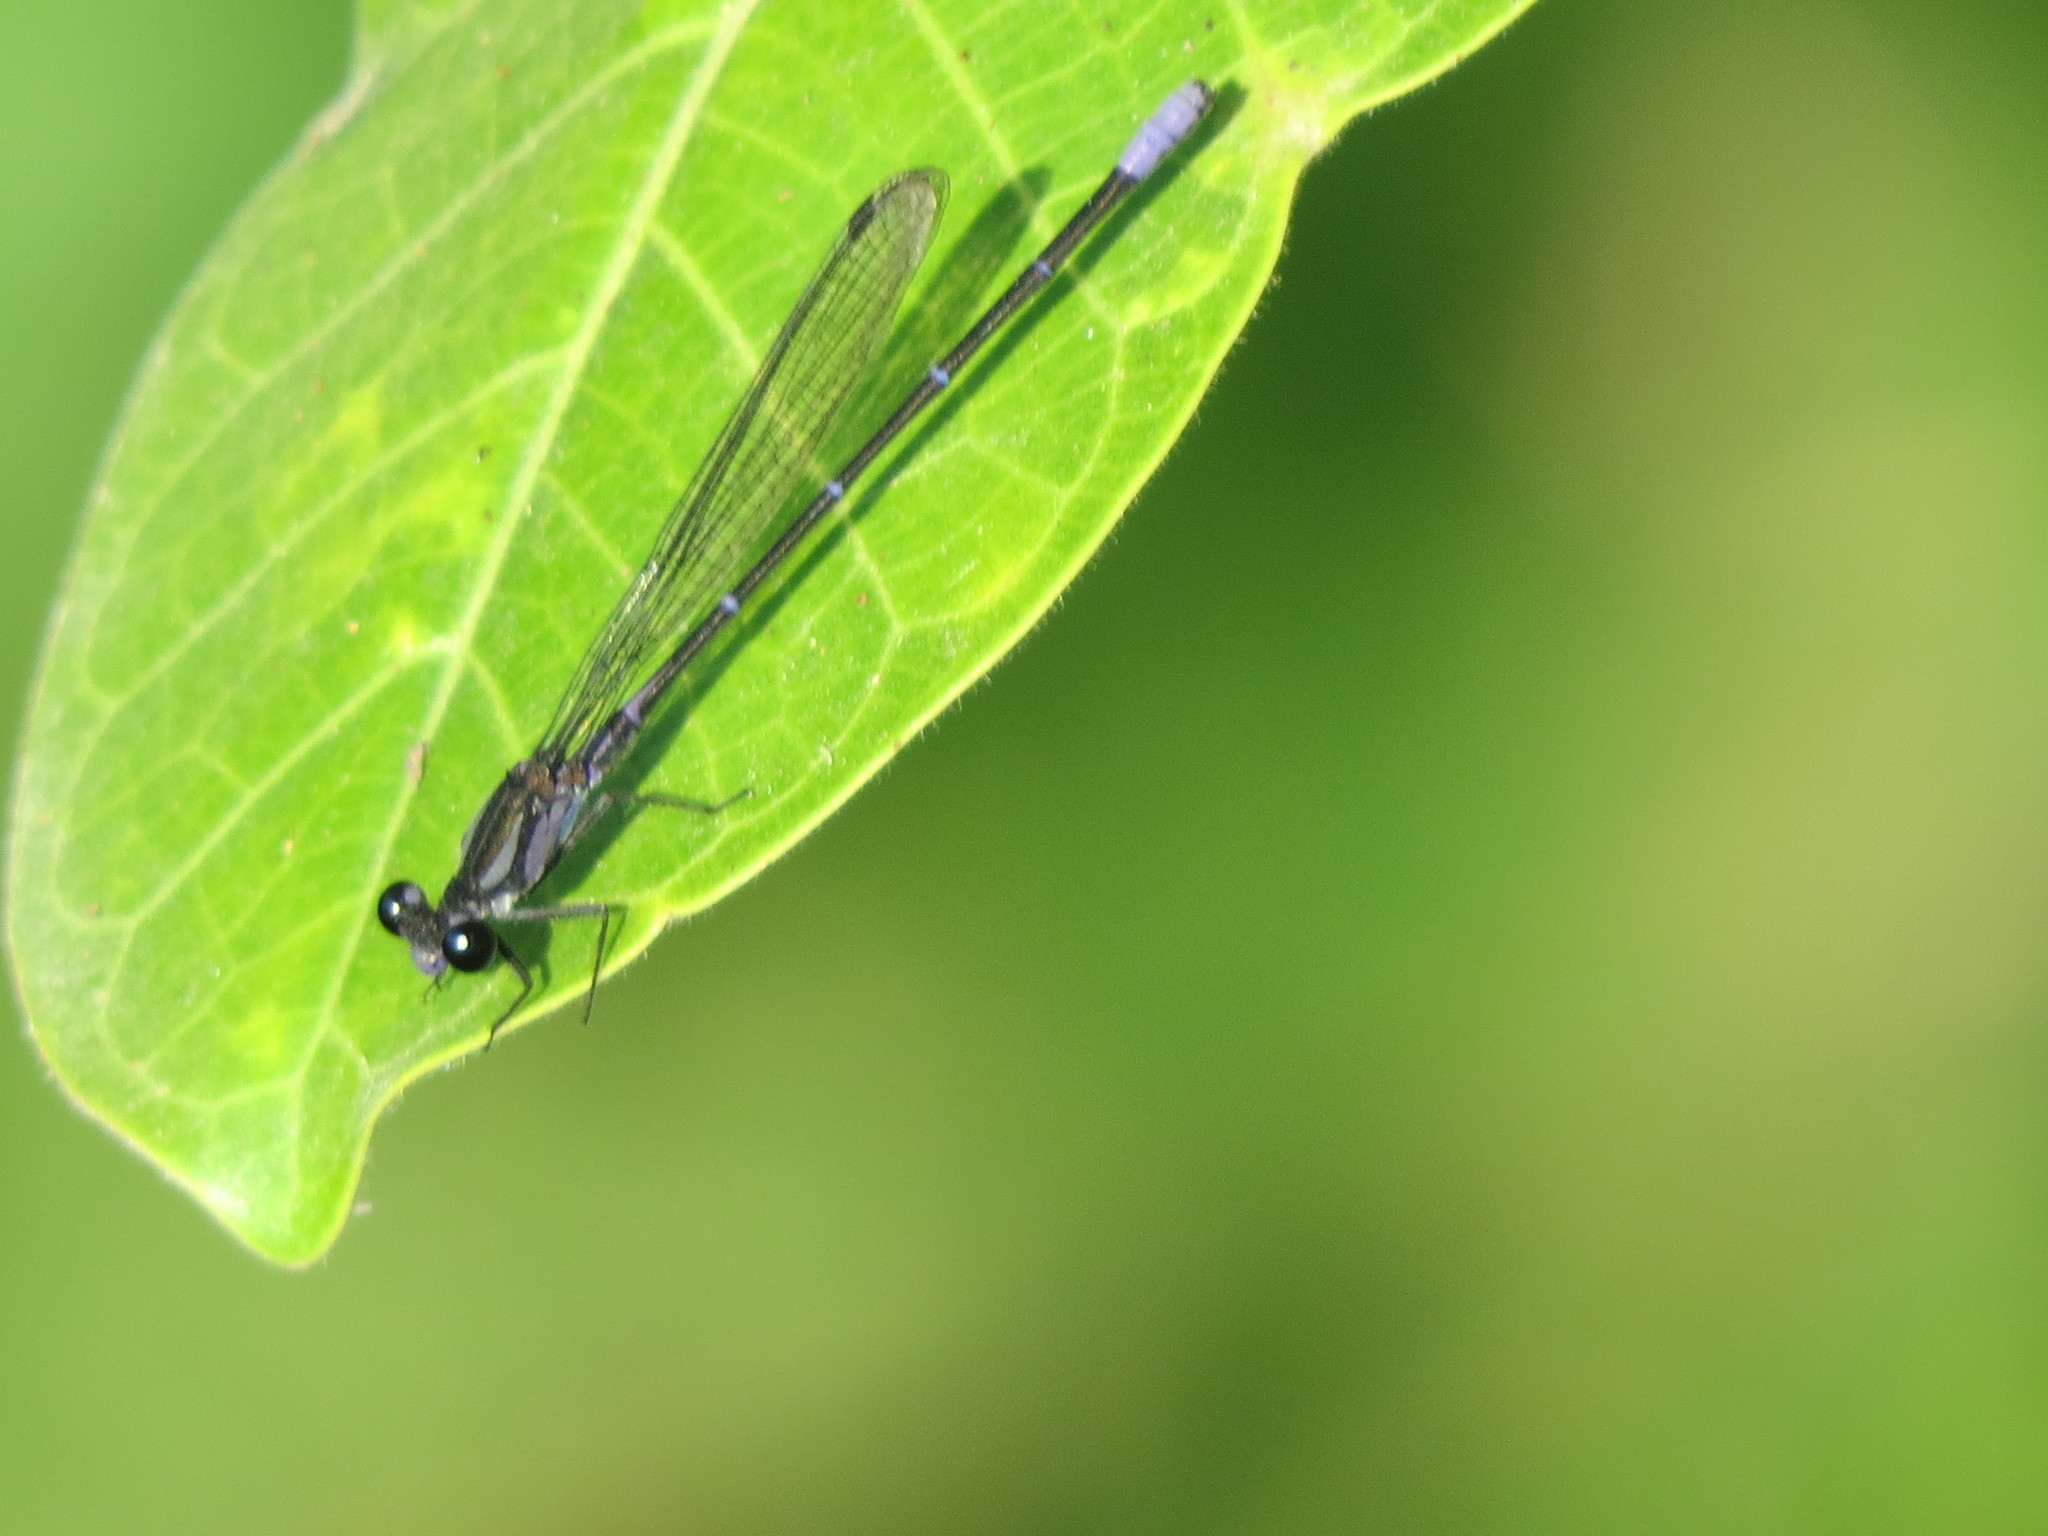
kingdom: Animalia
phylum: Arthropoda
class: Insecta
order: Odonata
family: Coenagrionidae
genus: Argia
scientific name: Argia pulla
